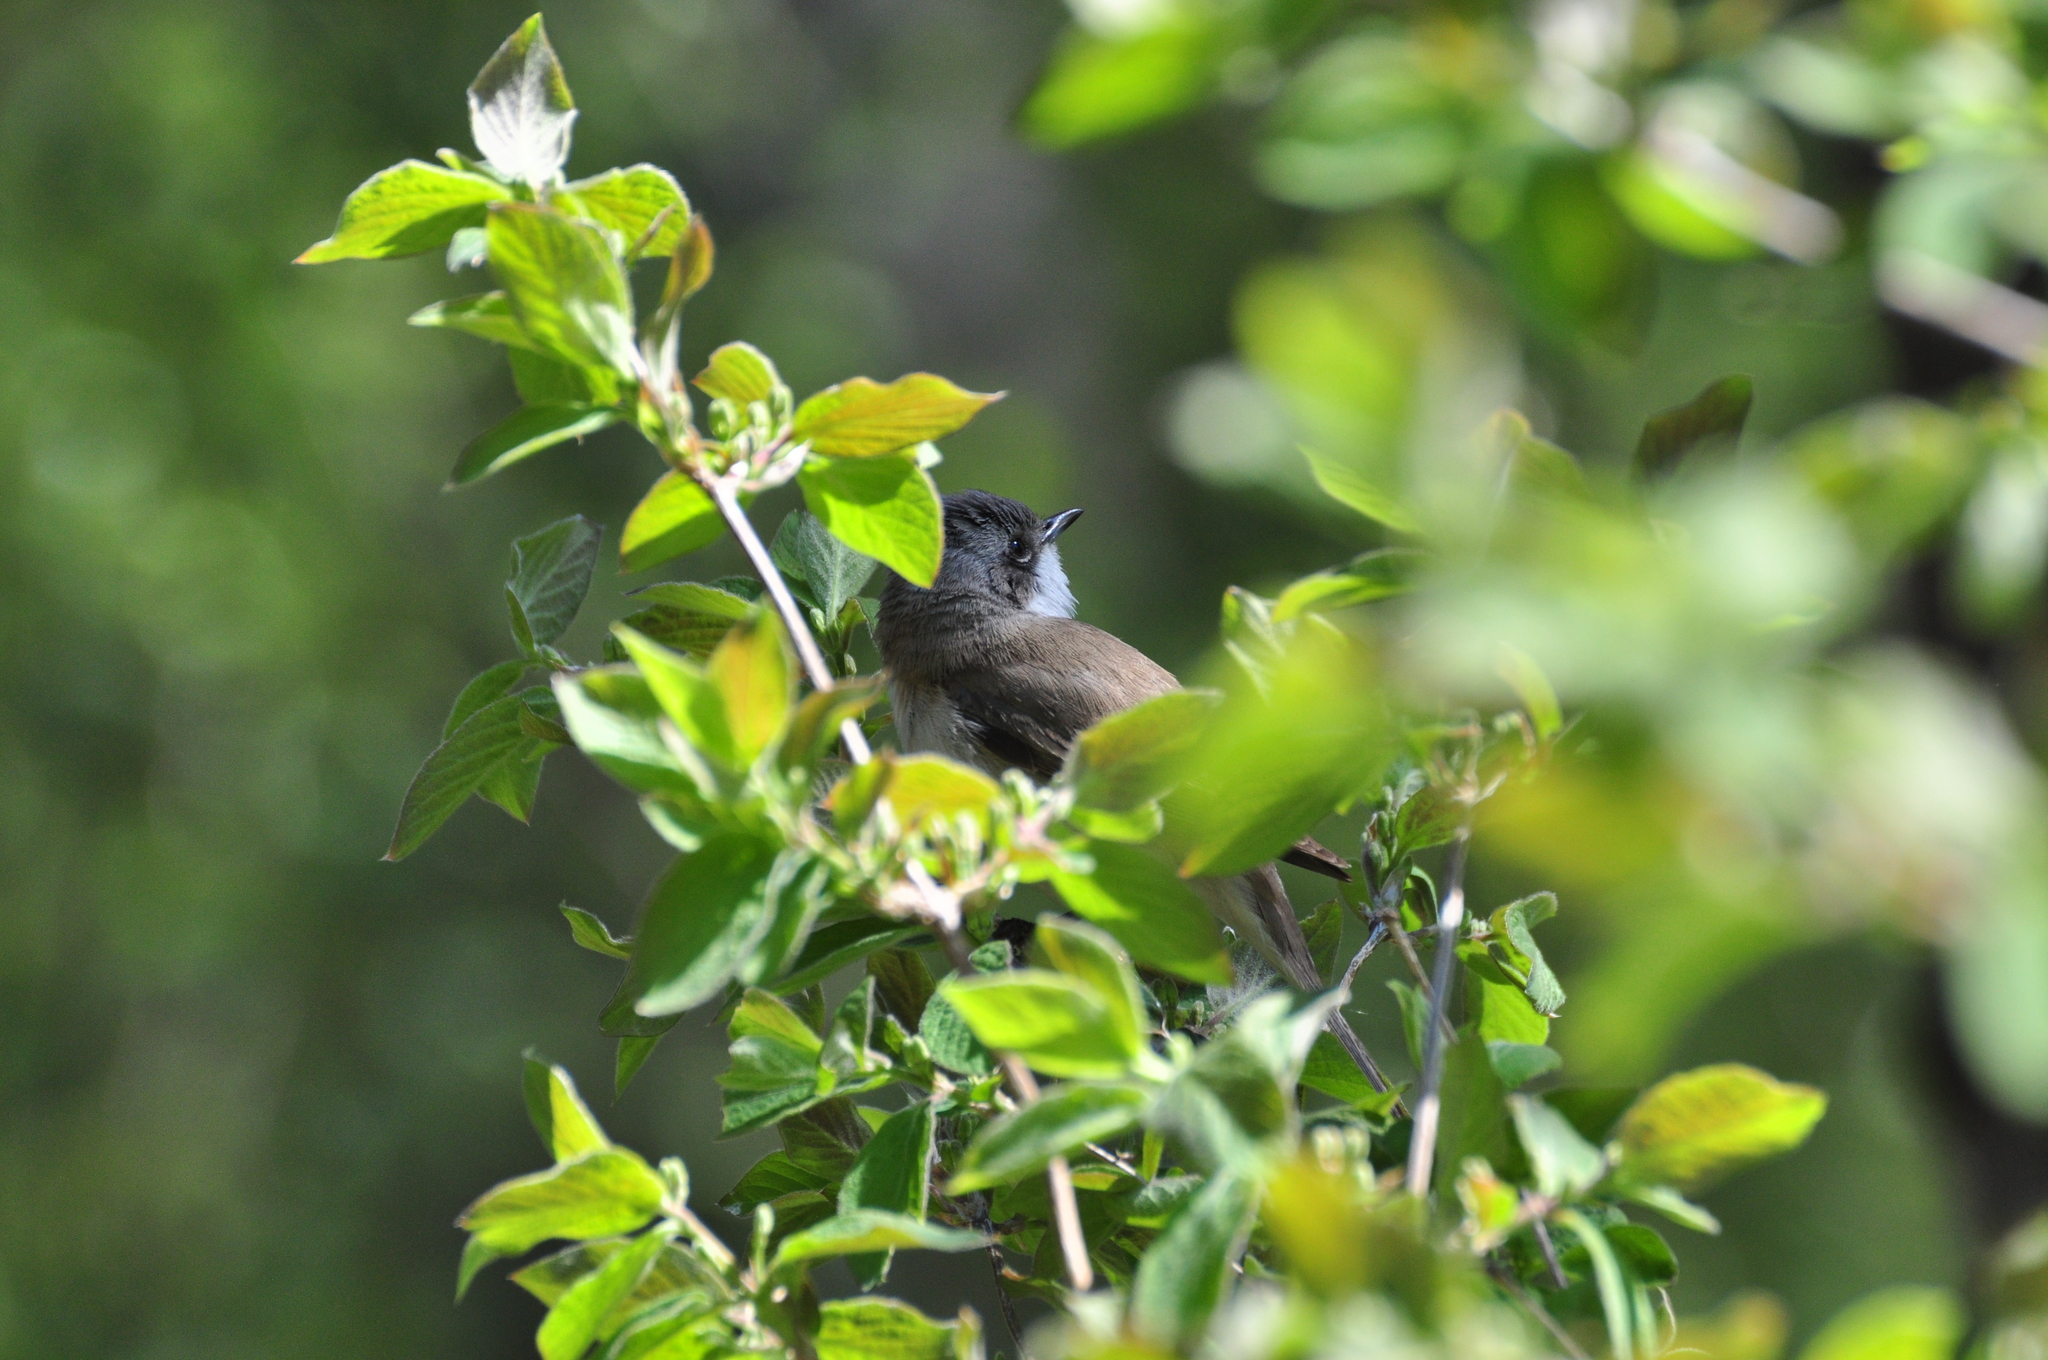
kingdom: Animalia
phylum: Chordata
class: Aves
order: Passeriformes
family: Sylviidae
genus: Sylvia
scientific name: Sylvia curruca
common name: Lesser whitethroat
